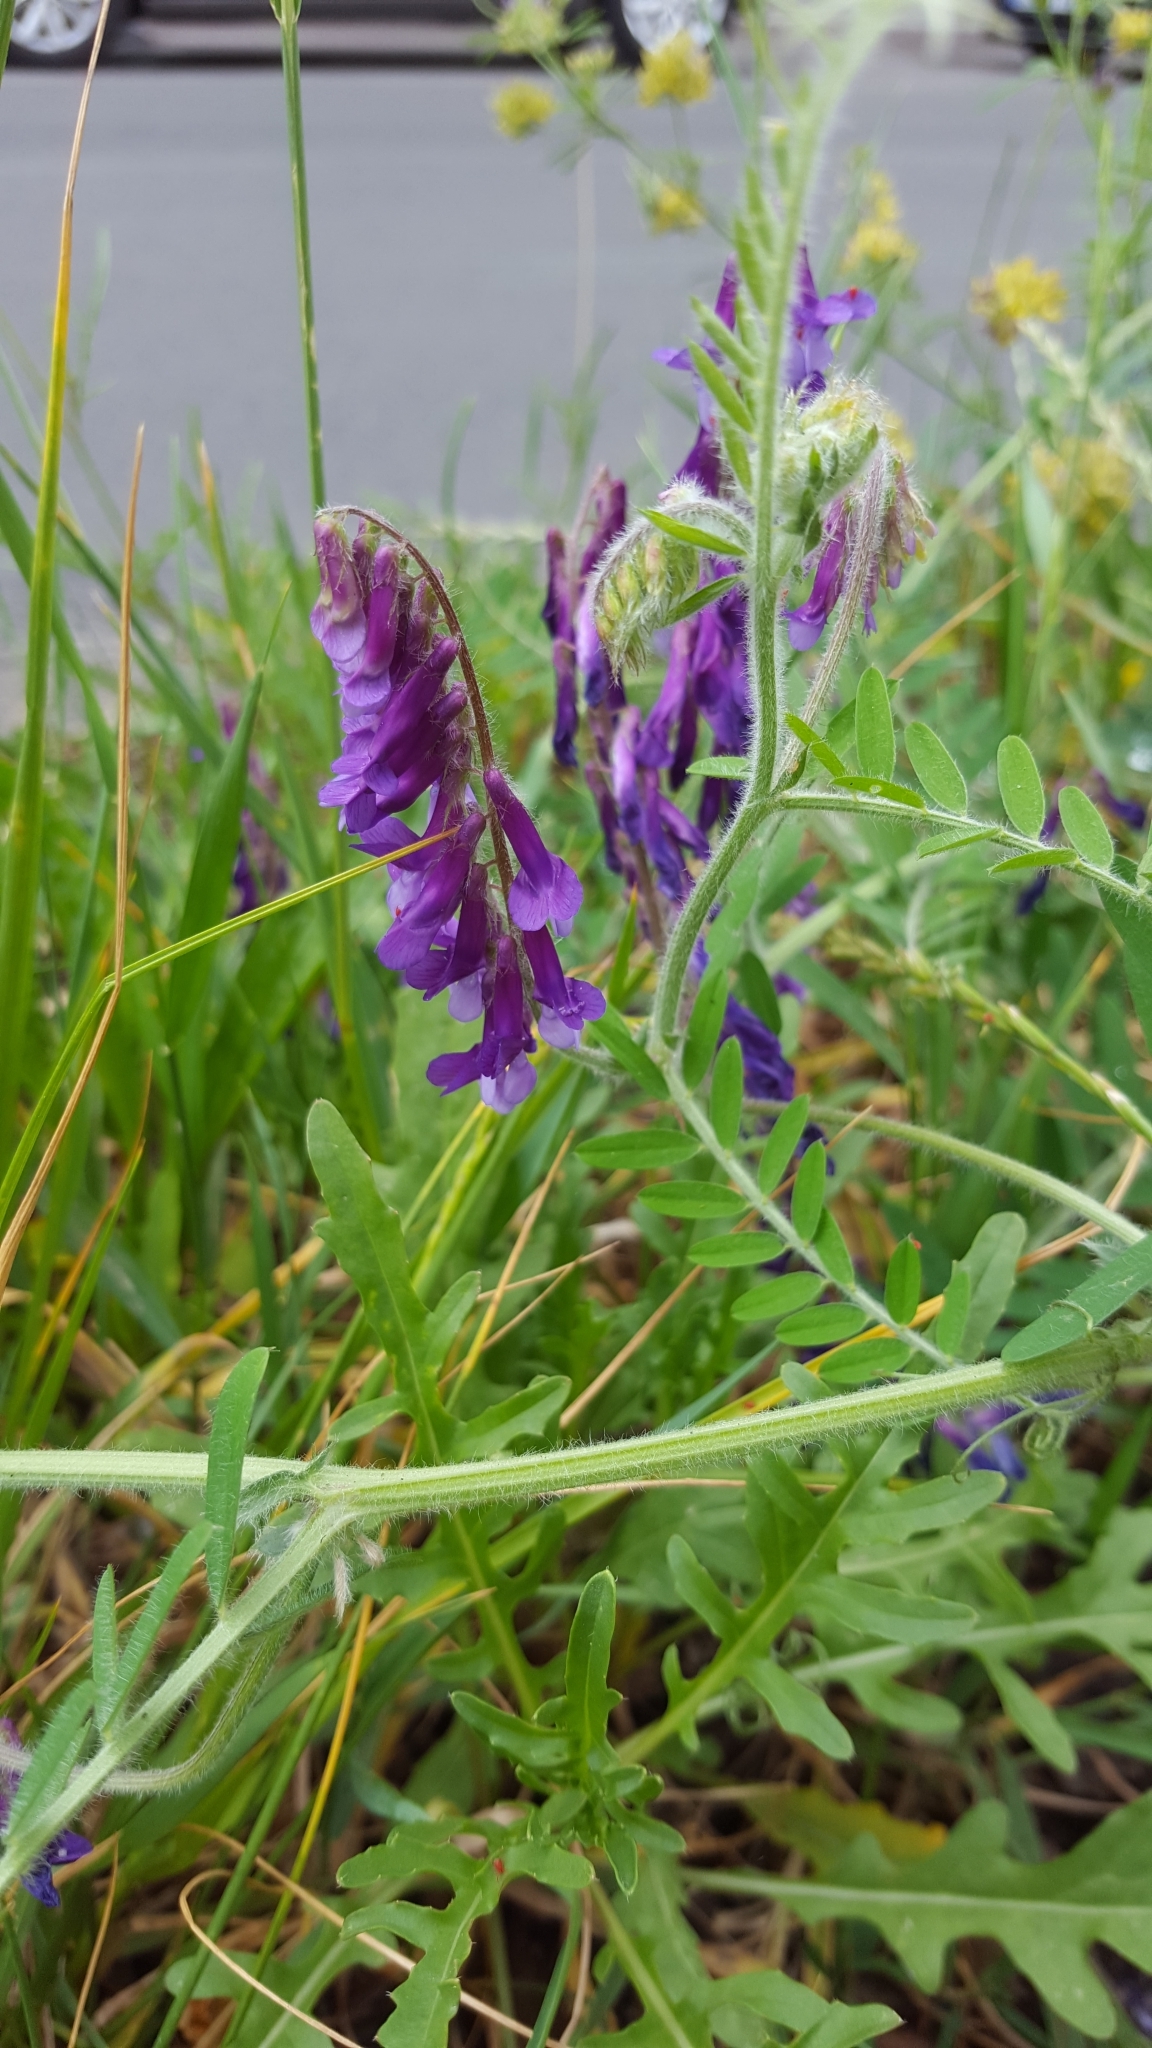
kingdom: Plantae
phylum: Tracheophyta
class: Magnoliopsida
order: Fabales
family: Fabaceae
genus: Vicia
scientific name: Vicia villosa
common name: Fodder vetch
